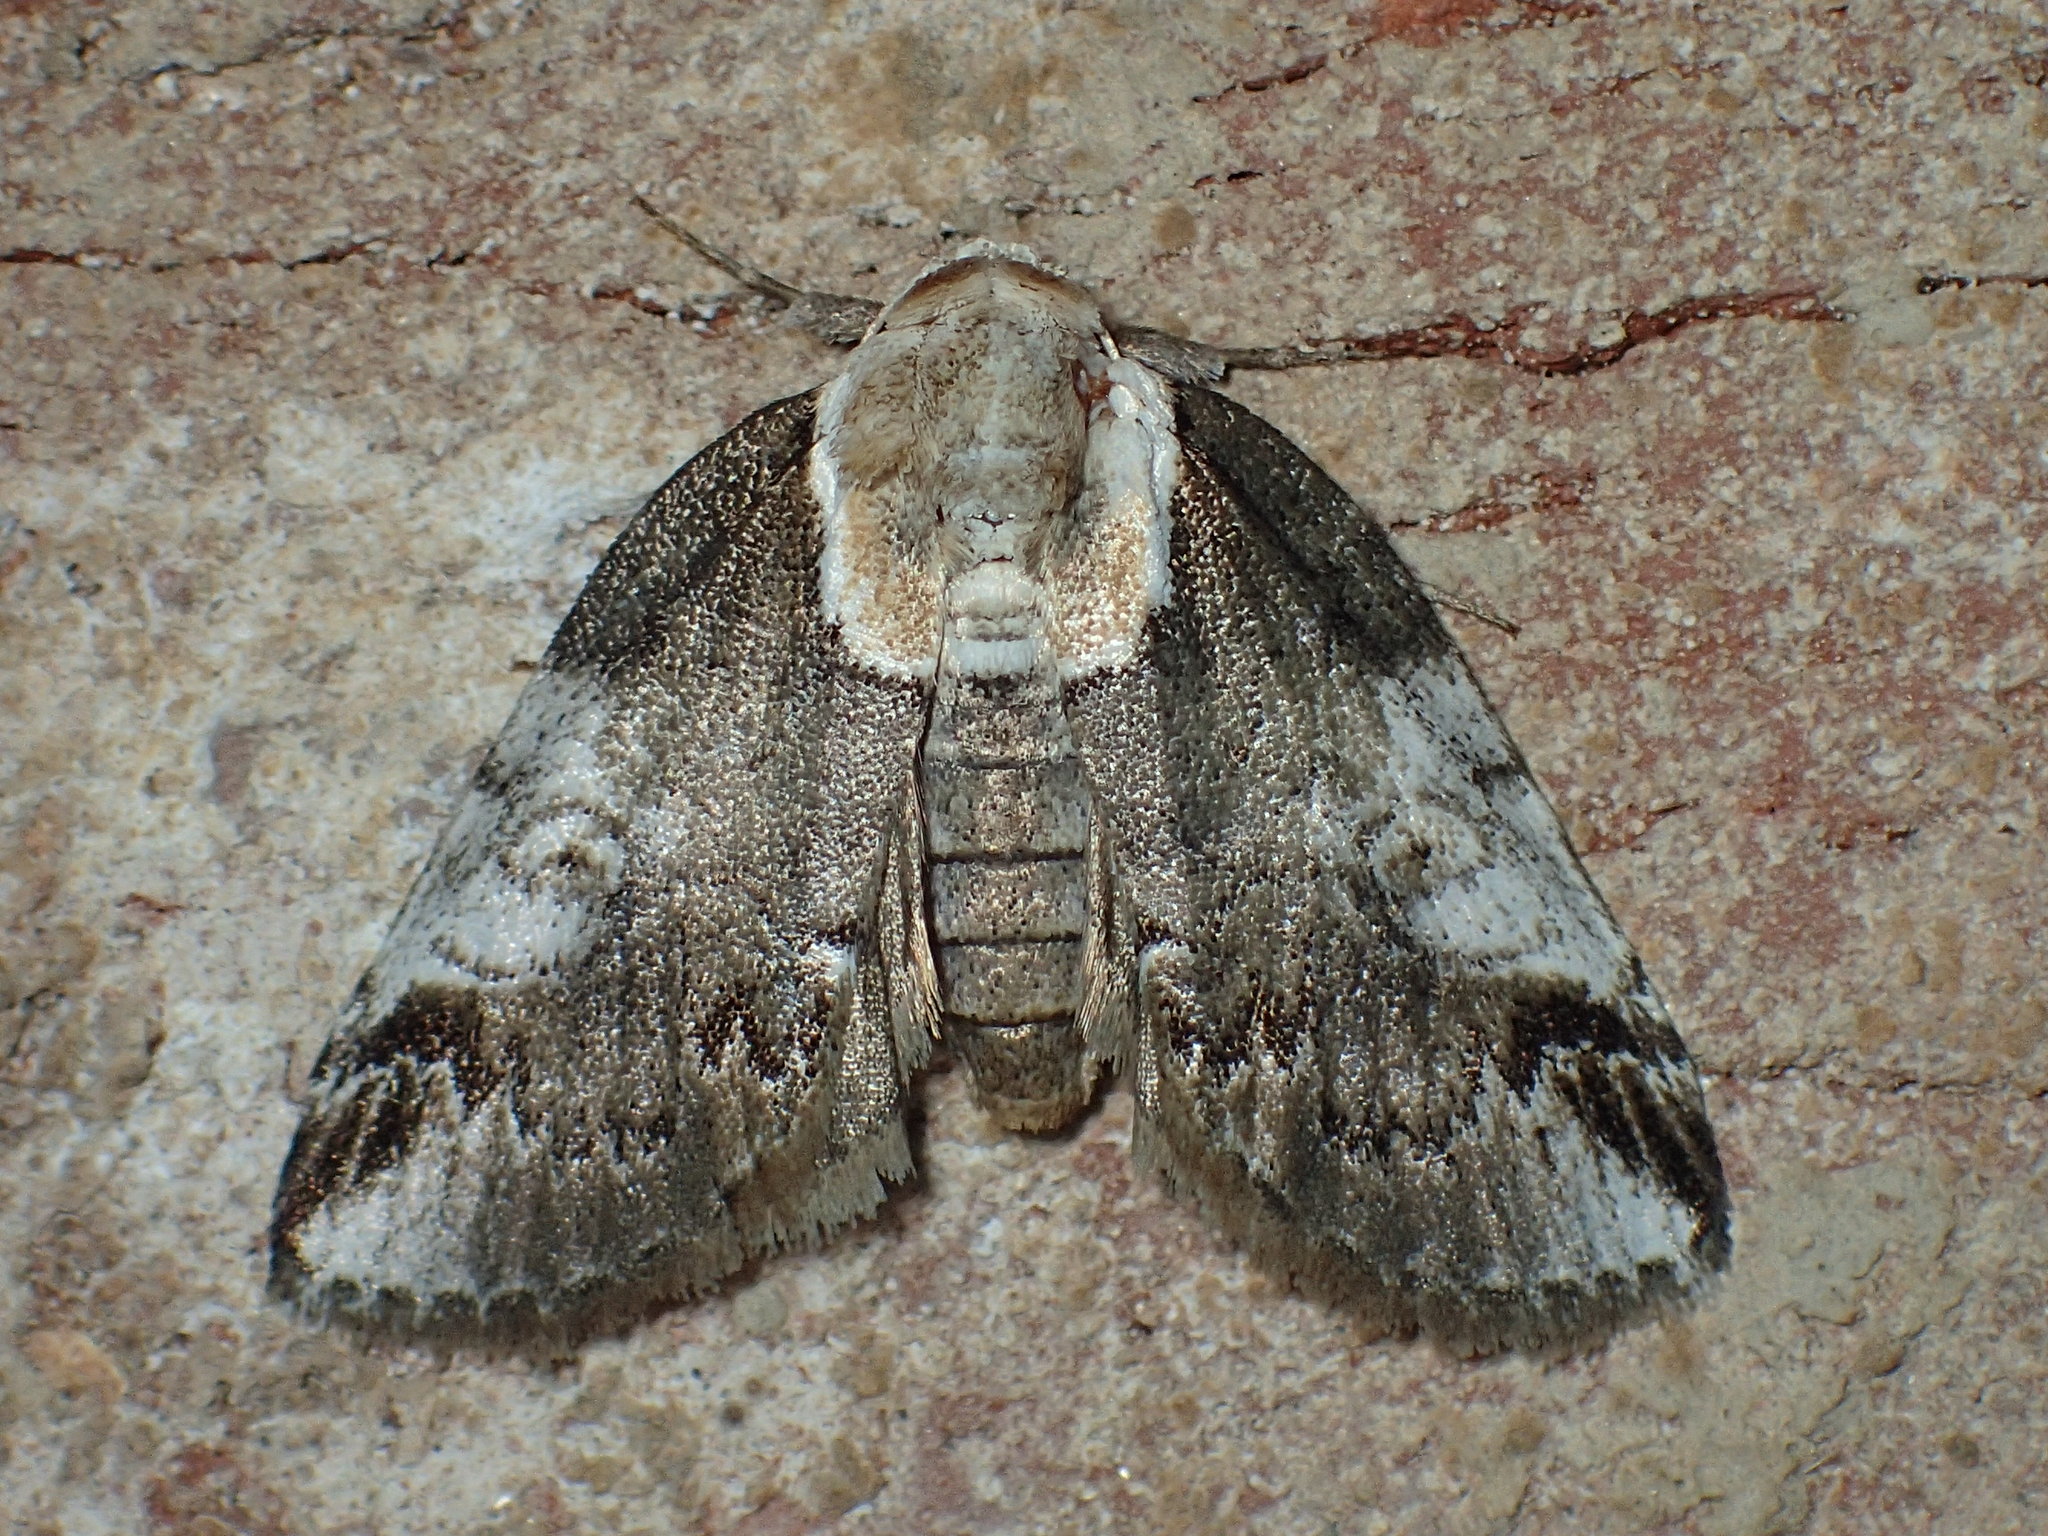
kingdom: Animalia
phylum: Arthropoda
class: Insecta
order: Lepidoptera
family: Nolidae
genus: Baileya
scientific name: Baileya ophthalmica
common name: Eyed baileya moth
